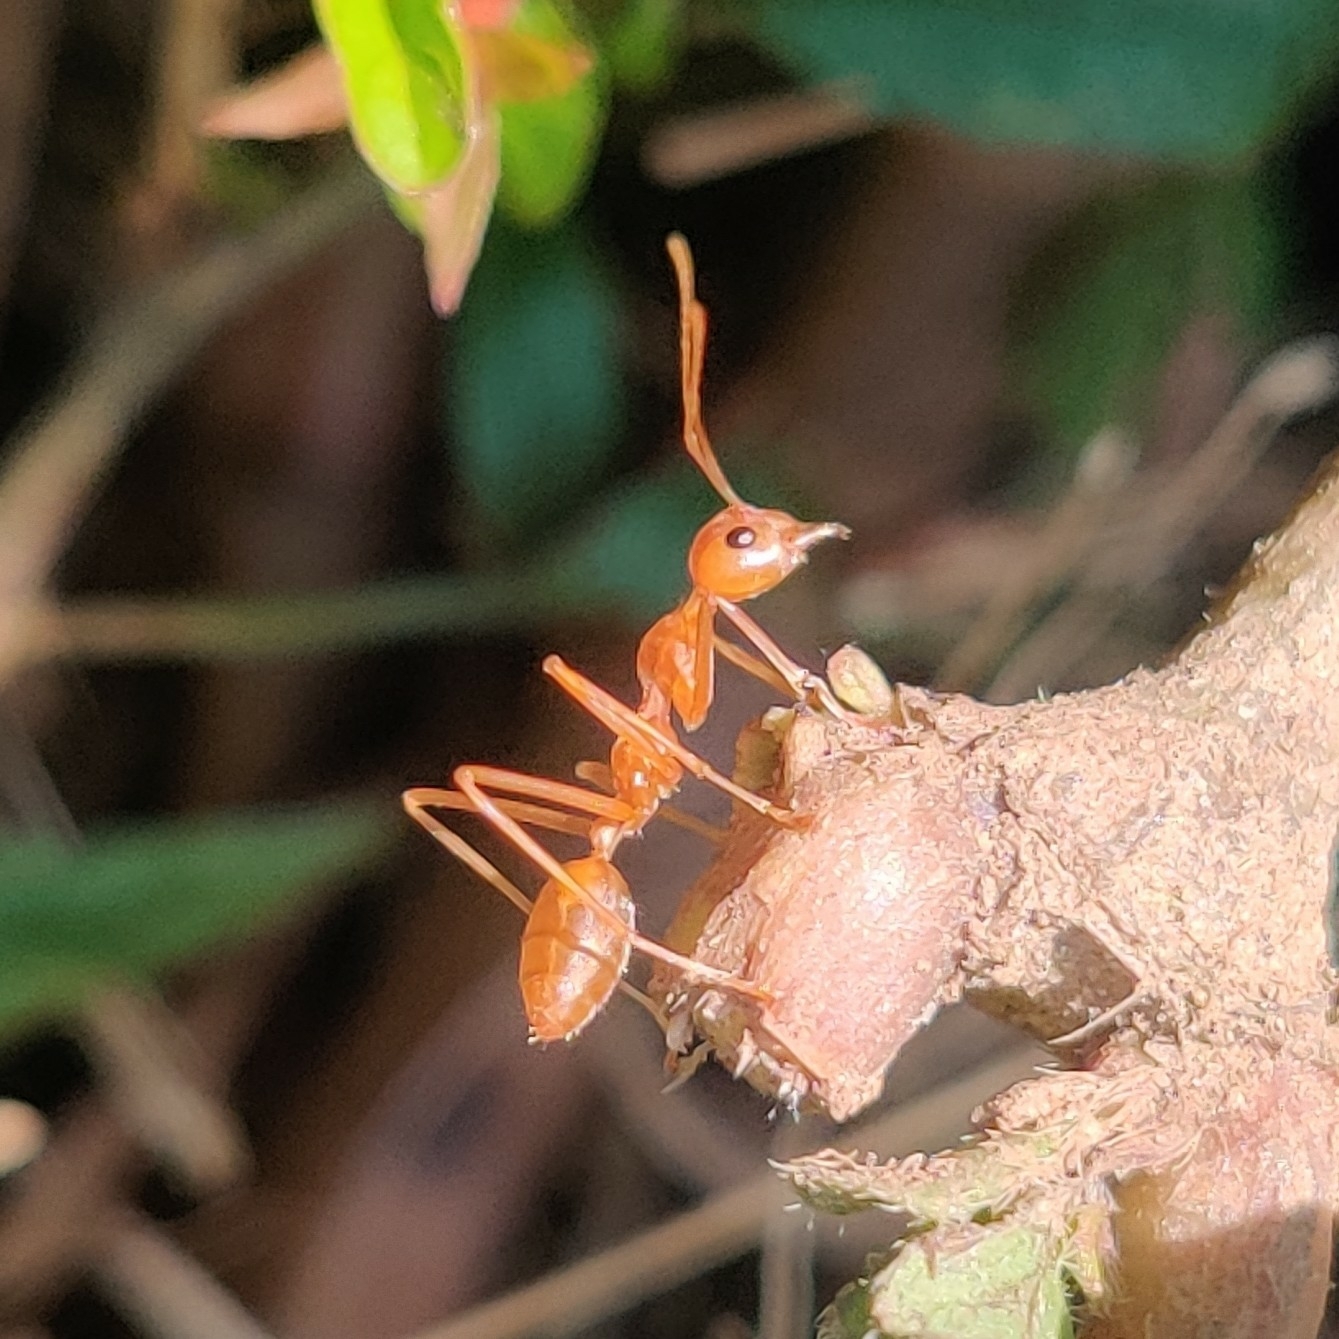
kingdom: Animalia
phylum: Arthropoda
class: Insecta
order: Hymenoptera
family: Formicidae
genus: Oecophylla
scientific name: Oecophylla smaragdina
